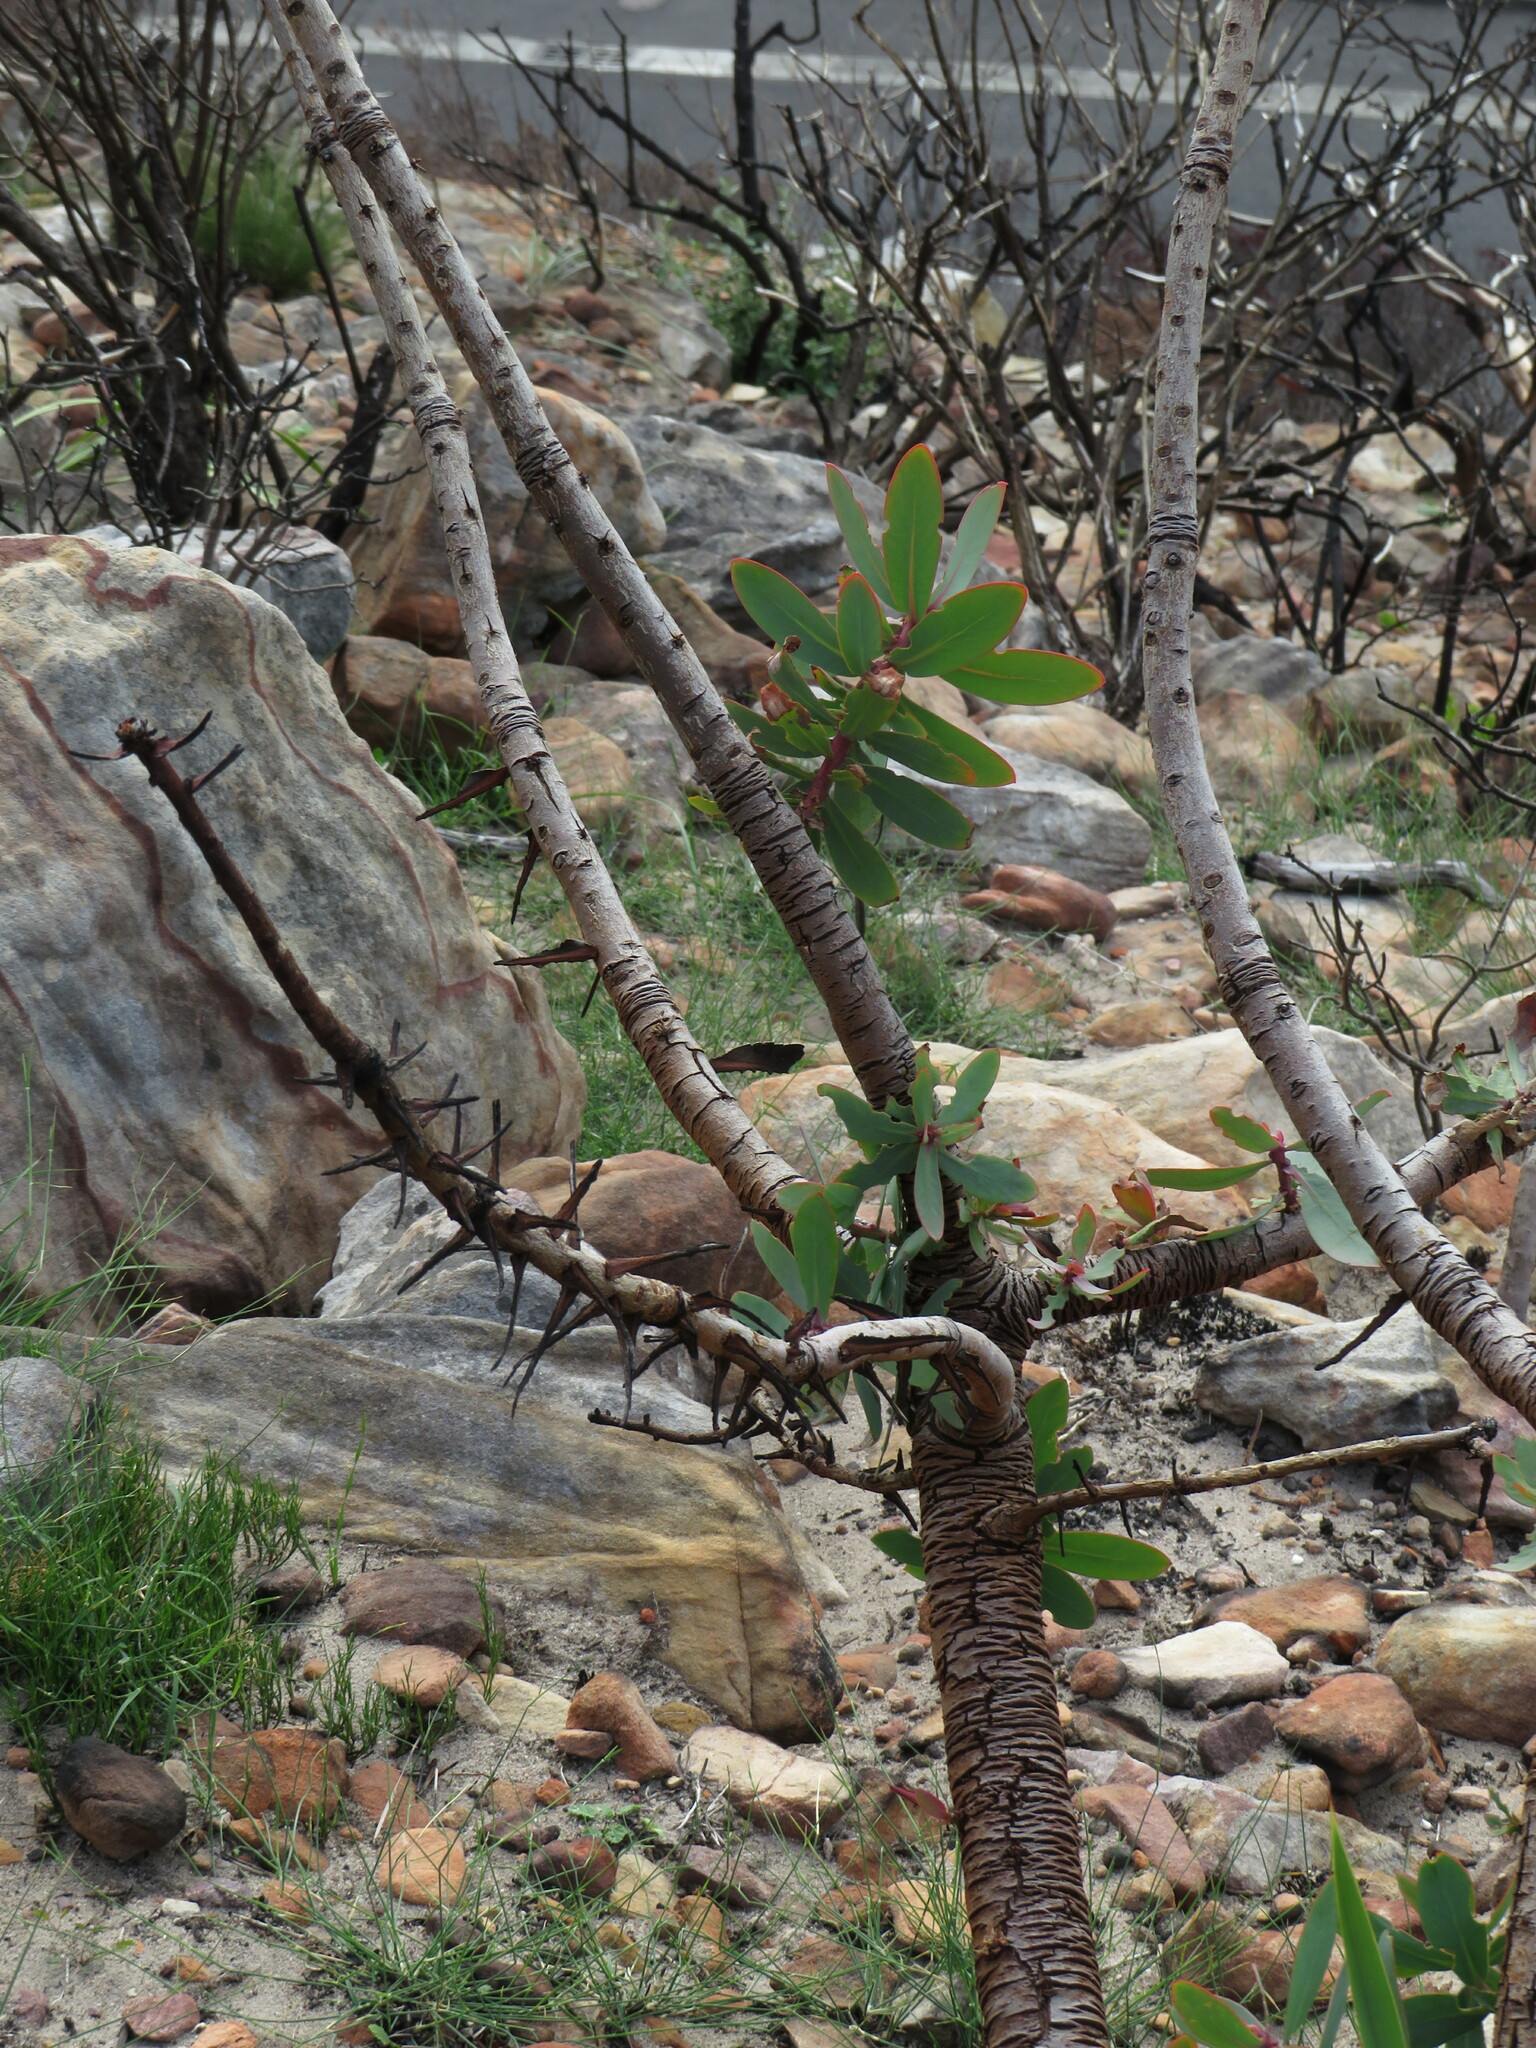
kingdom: Plantae
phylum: Tracheophyta
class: Magnoliopsida
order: Proteales
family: Proteaceae
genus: Protea
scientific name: Protea nitida
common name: Tree protea
